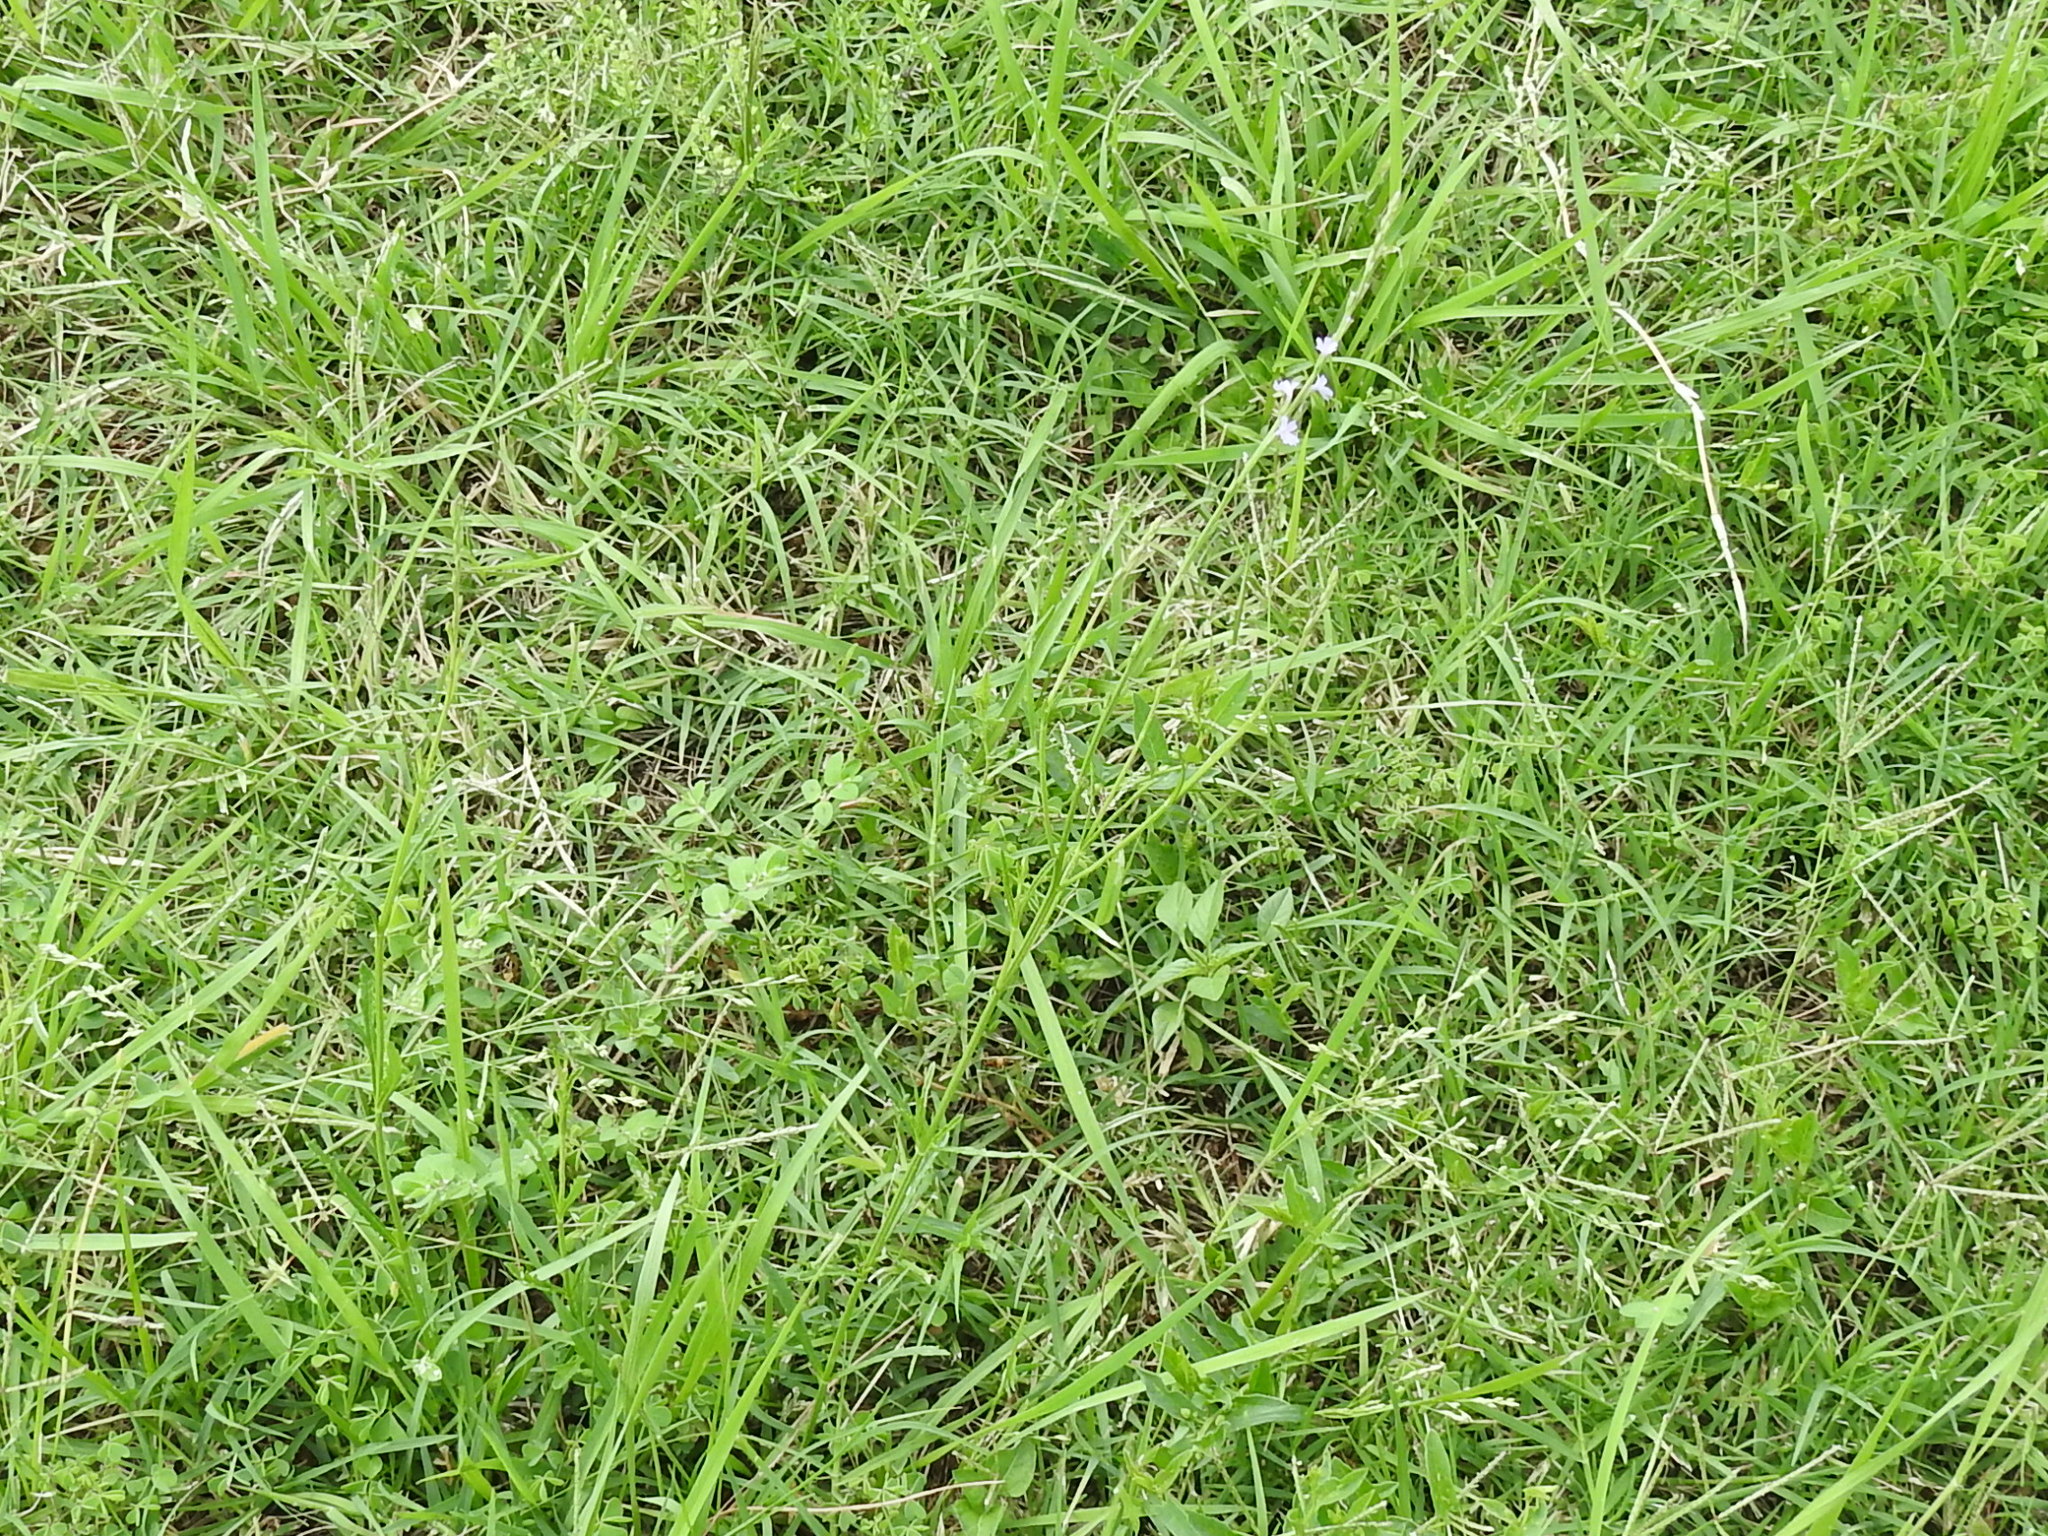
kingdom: Plantae
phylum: Tracheophyta
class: Magnoliopsida
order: Lamiales
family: Verbenaceae
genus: Verbena
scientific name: Verbena halei
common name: Texas vervain
